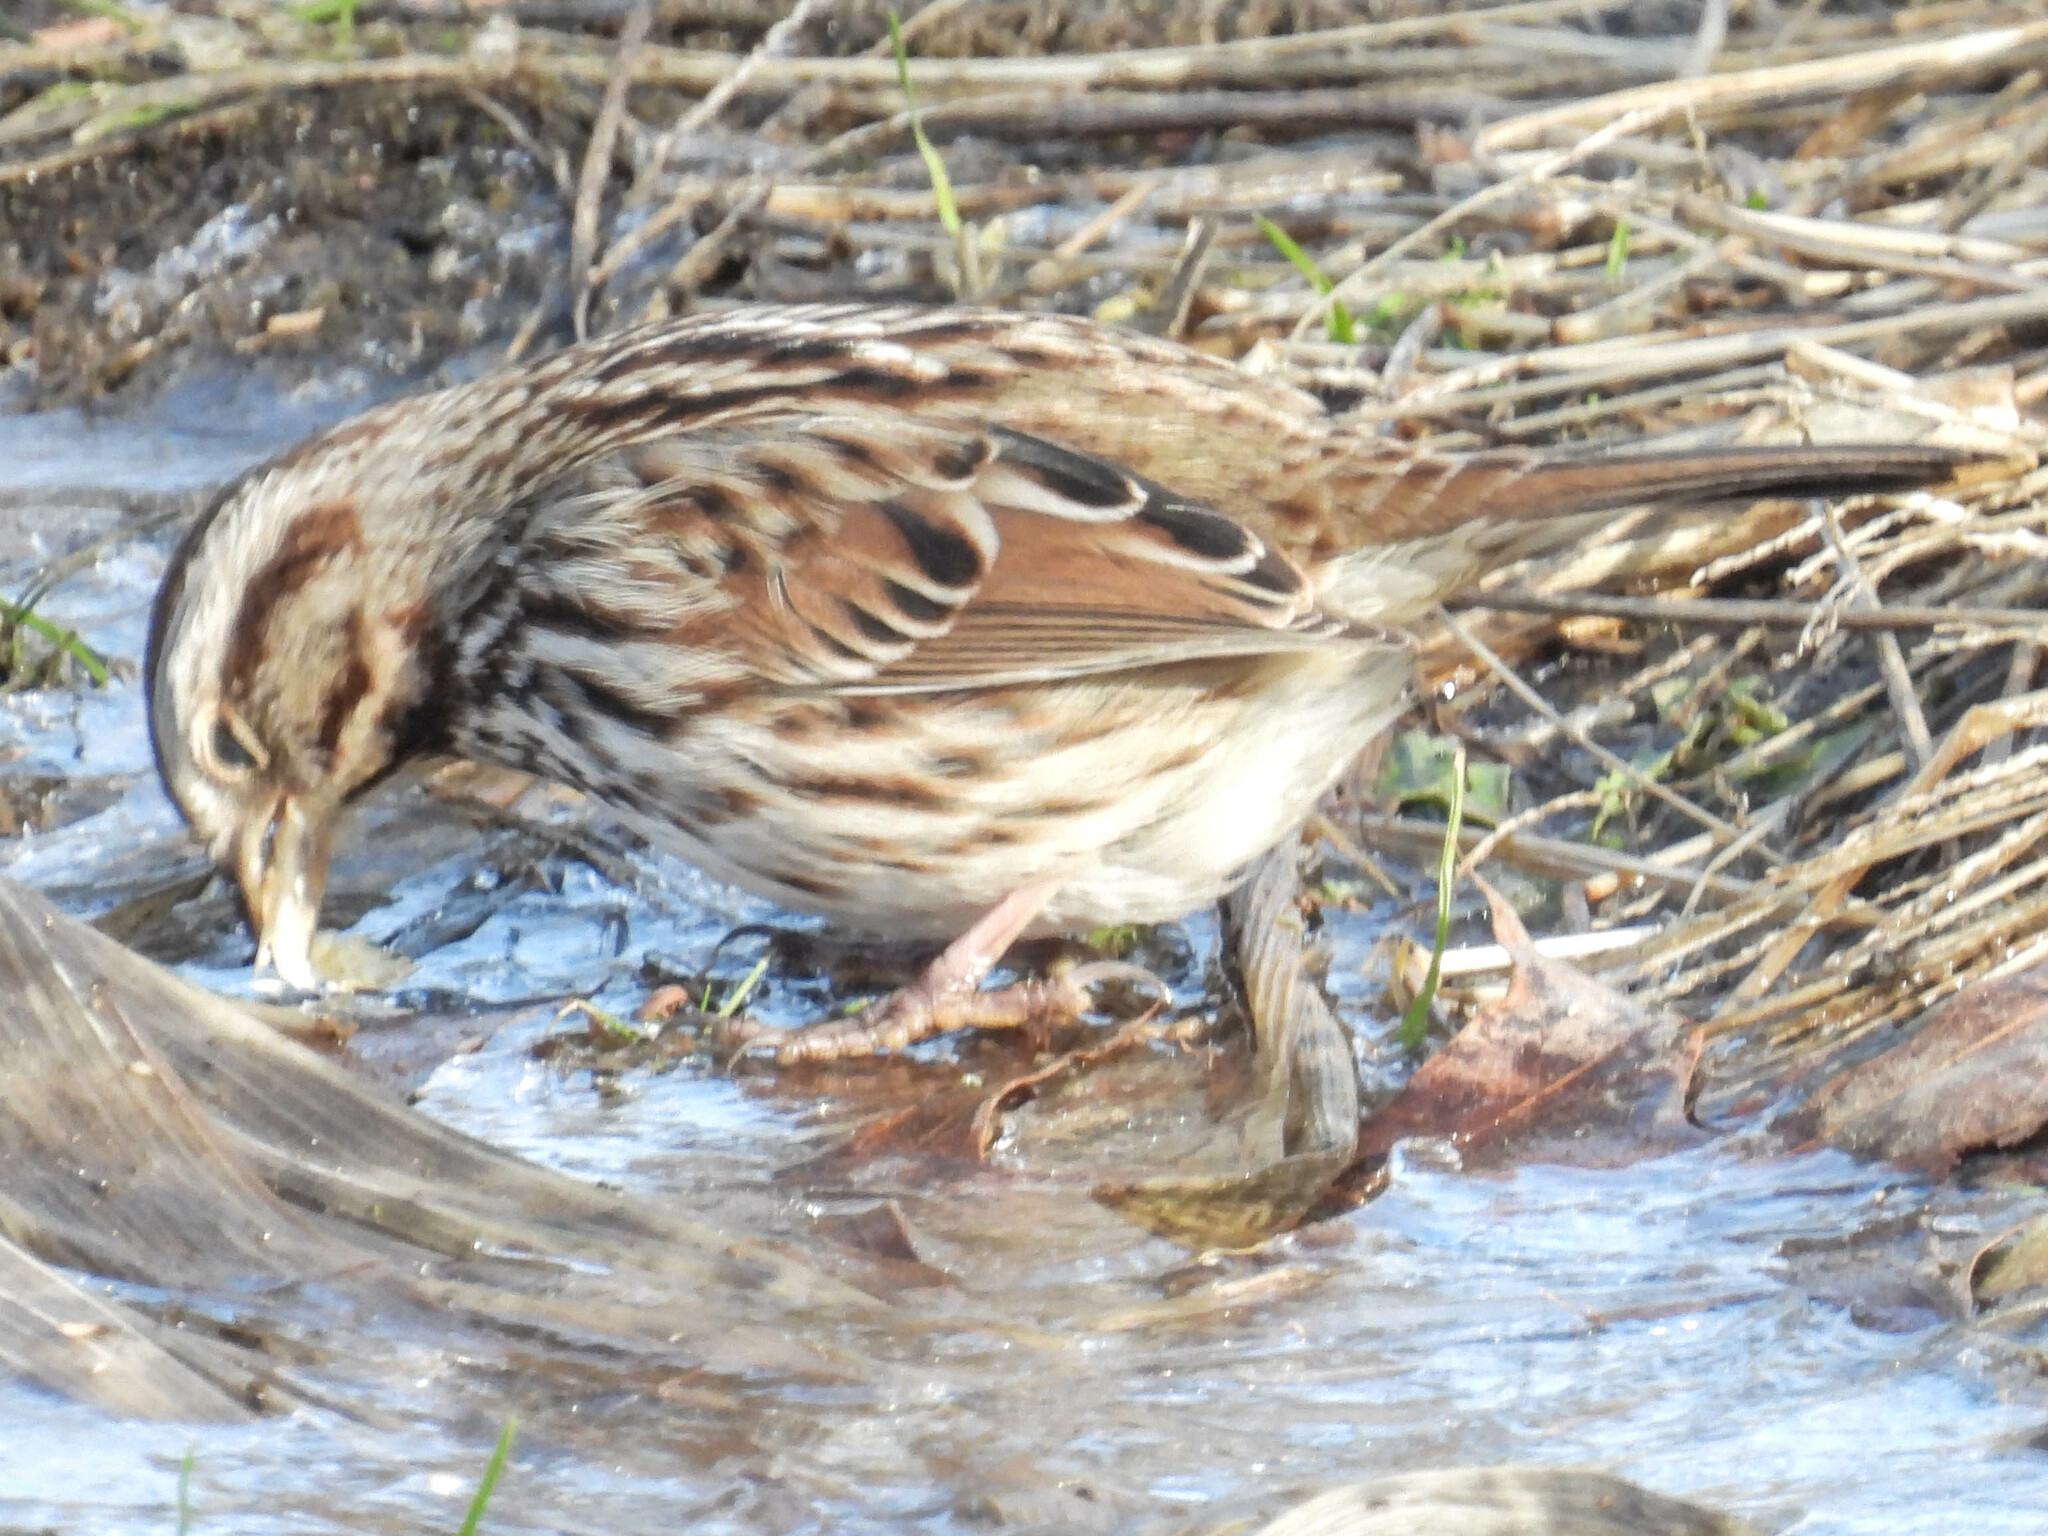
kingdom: Animalia
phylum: Chordata
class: Aves
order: Passeriformes
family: Passerellidae
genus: Melospiza
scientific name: Melospiza melodia
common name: Song sparrow
